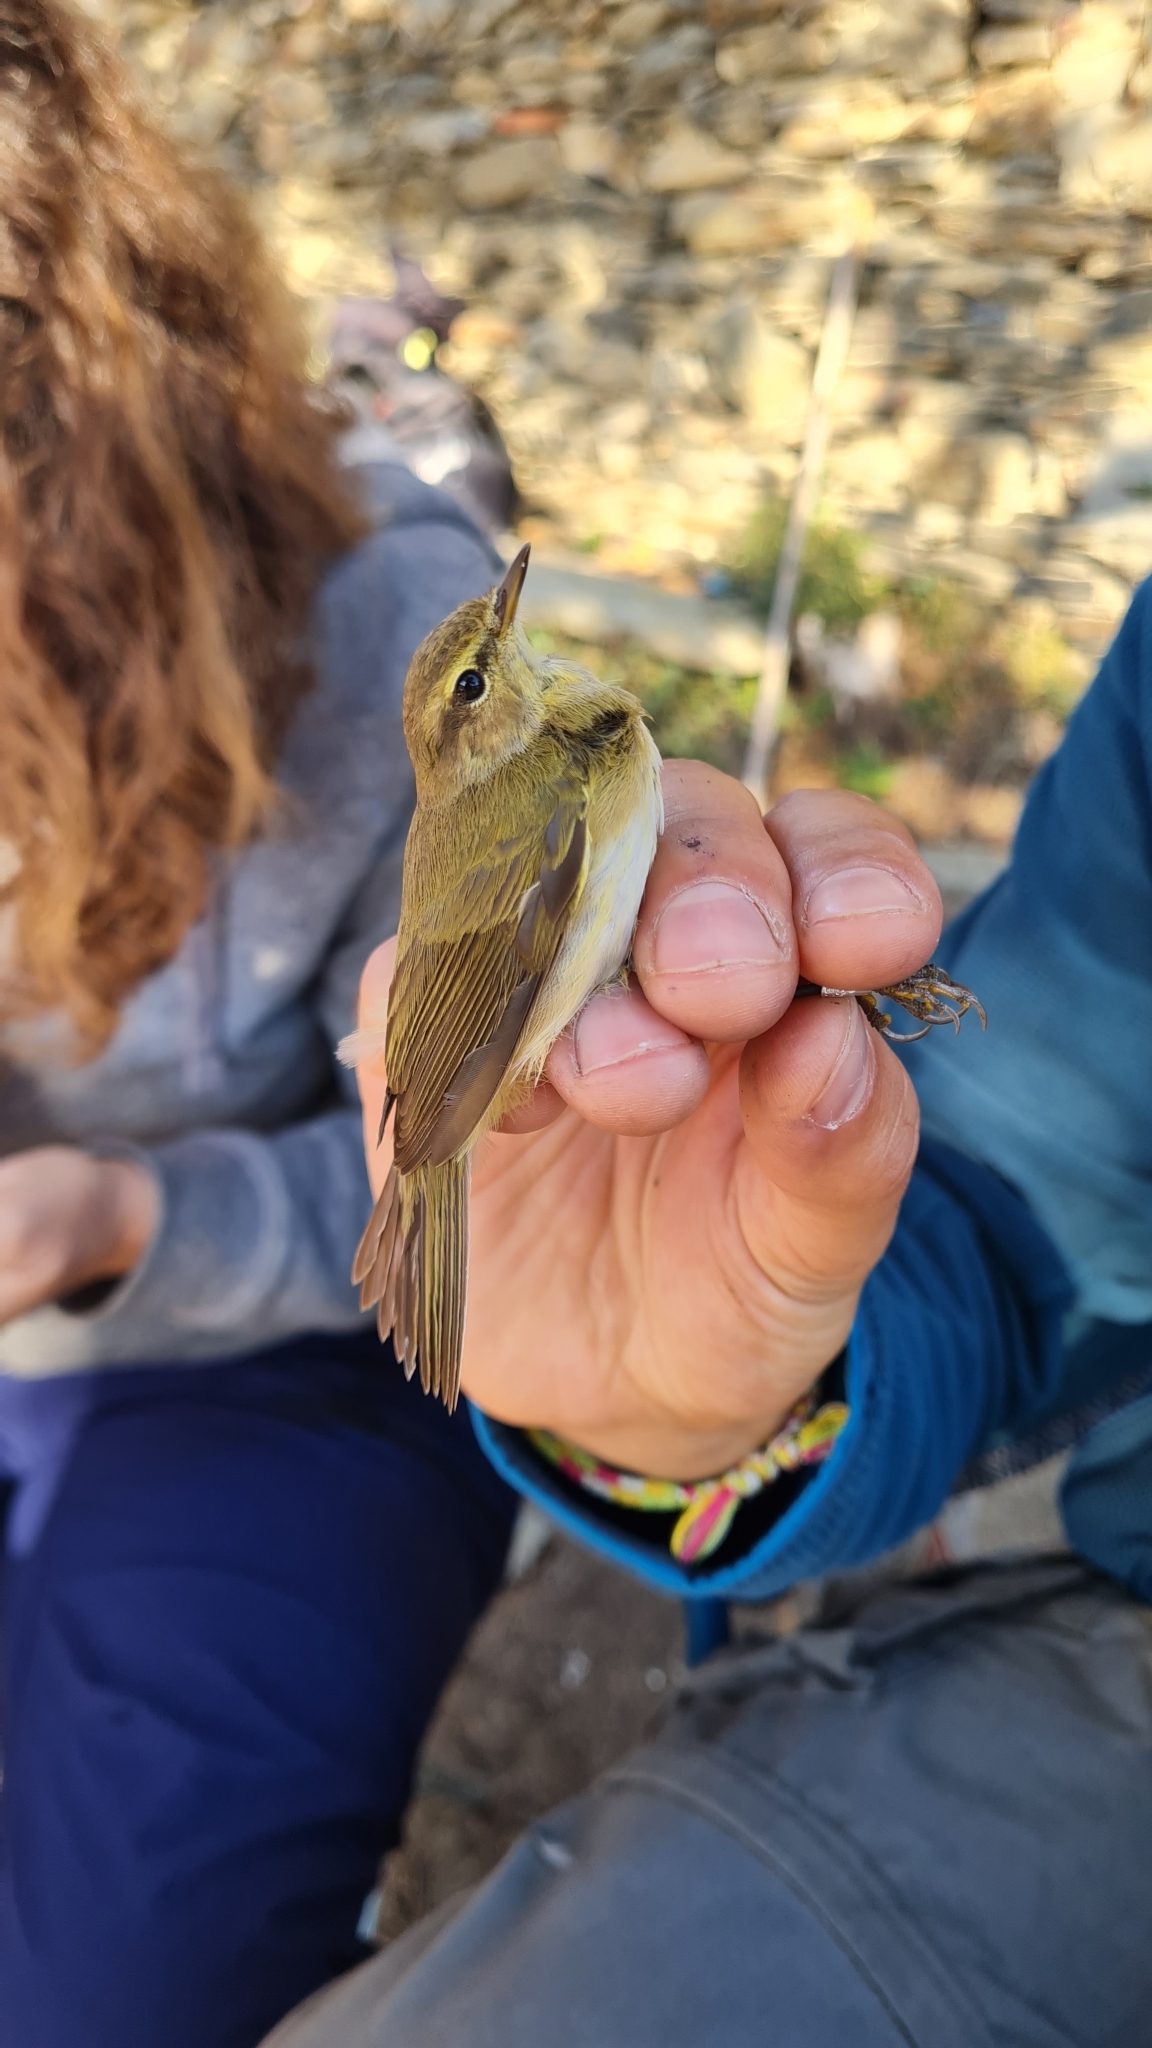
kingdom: Animalia
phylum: Chordata
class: Aves
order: Passeriformes
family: Phylloscopidae
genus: Phylloscopus
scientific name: Phylloscopus collybita
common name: Common chiffchaff
